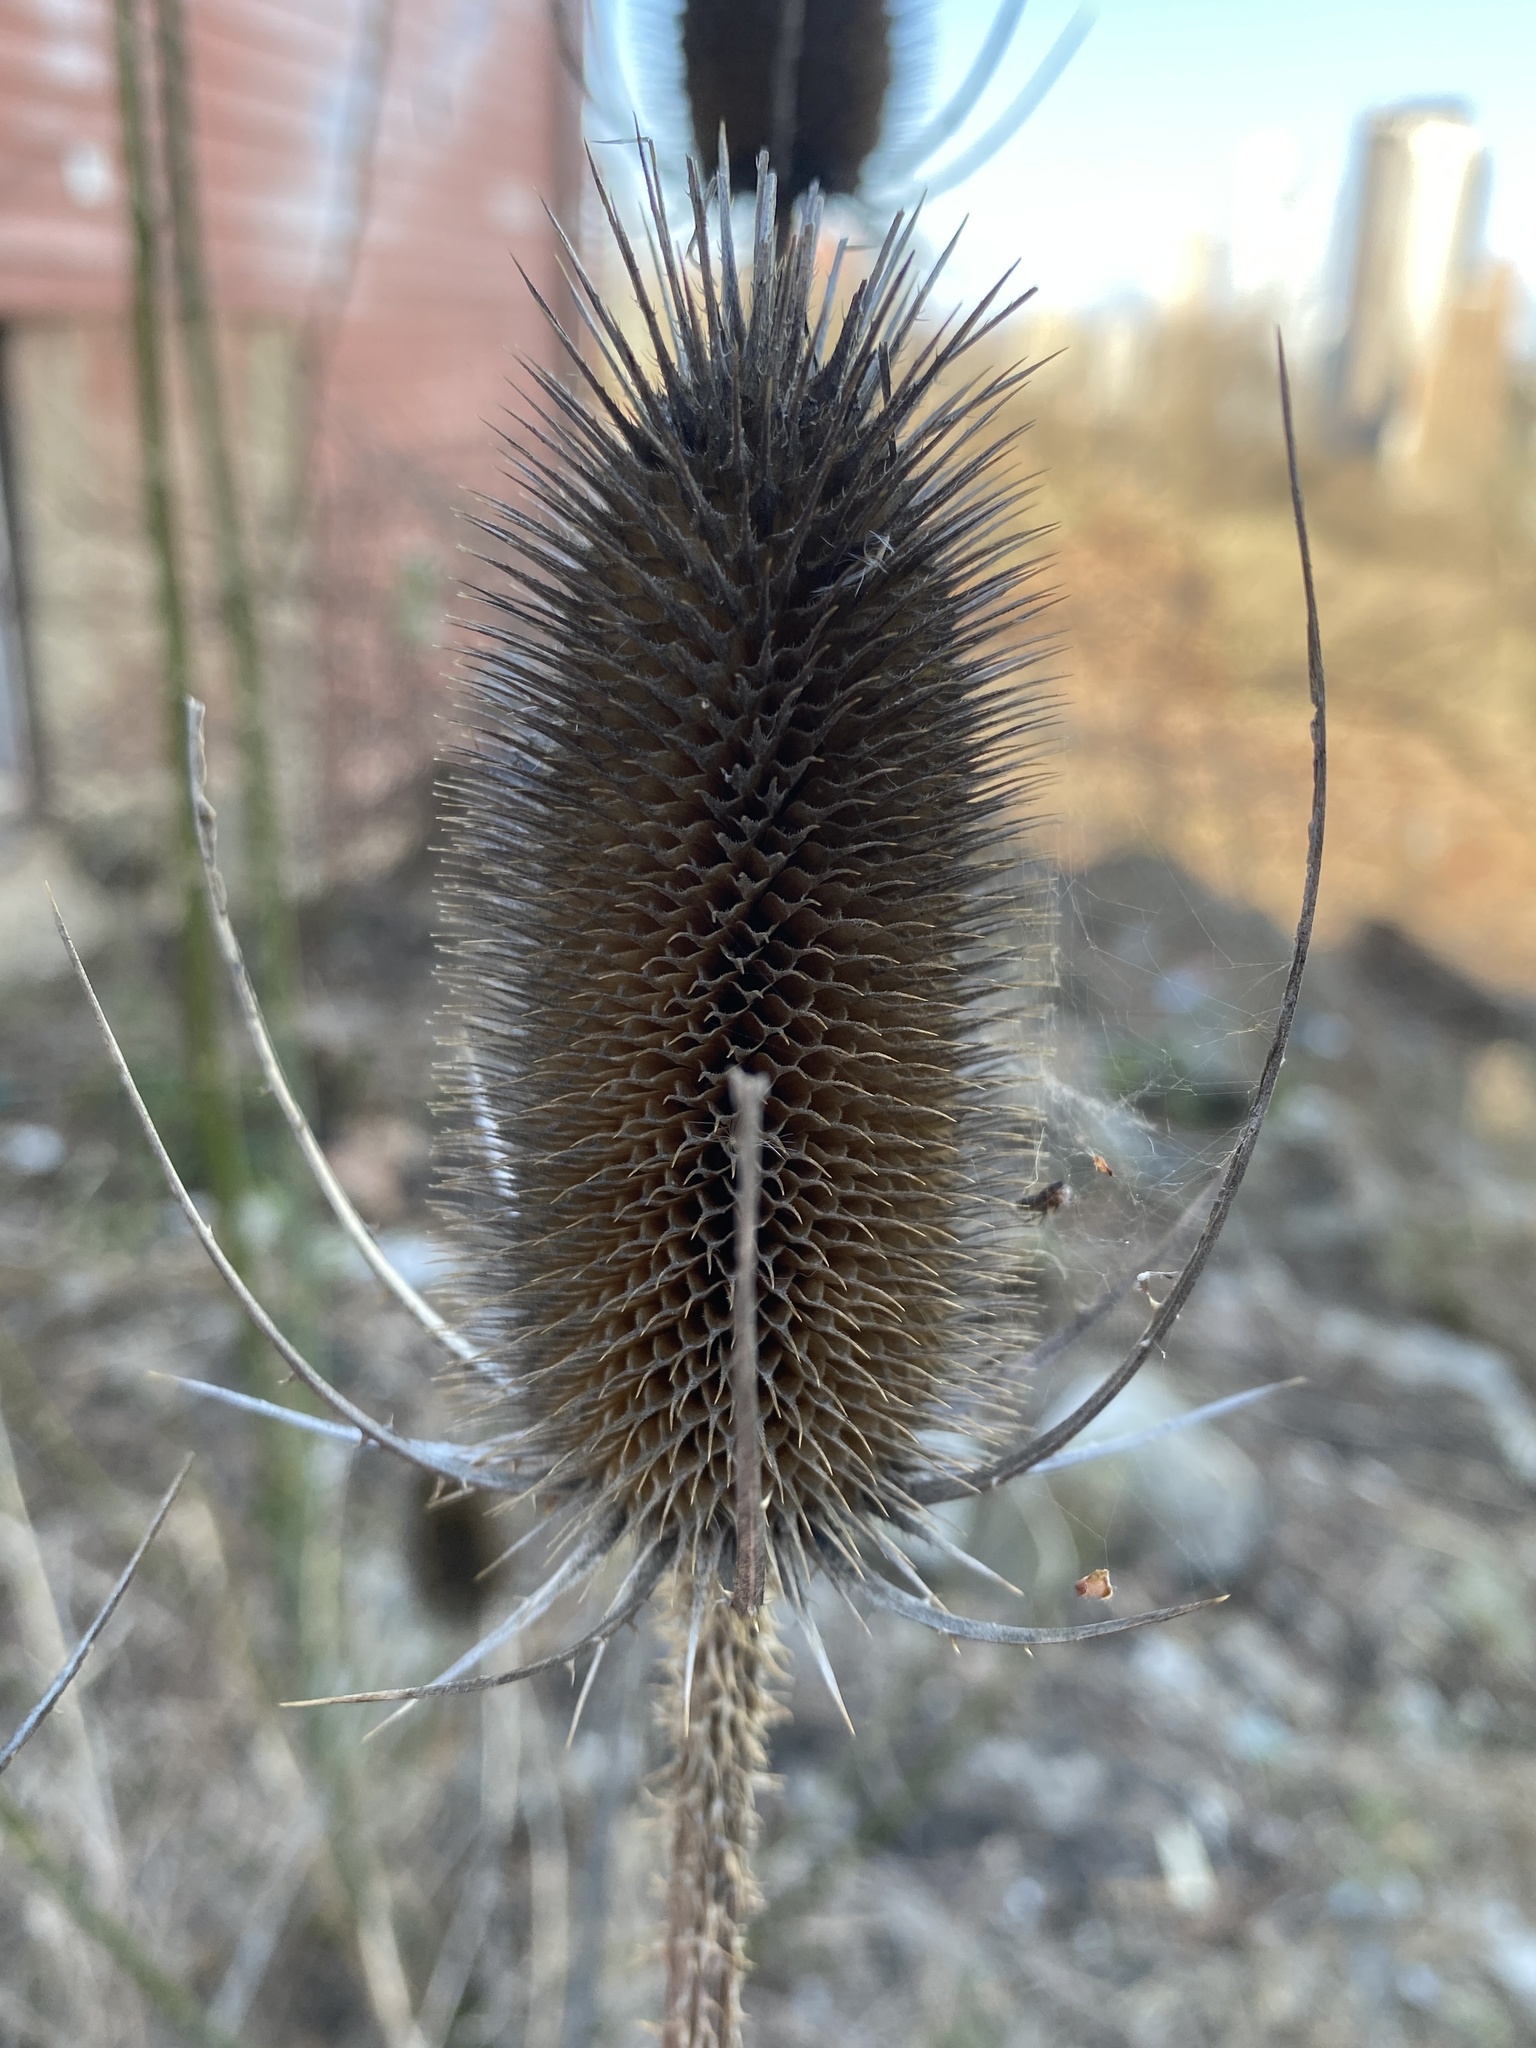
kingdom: Plantae
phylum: Tracheophyta
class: Magnoliopsida
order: Dipsacales
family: Caprifoliaceae
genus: Dipsacus
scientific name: Dipsacus fullonum
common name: Teasel
